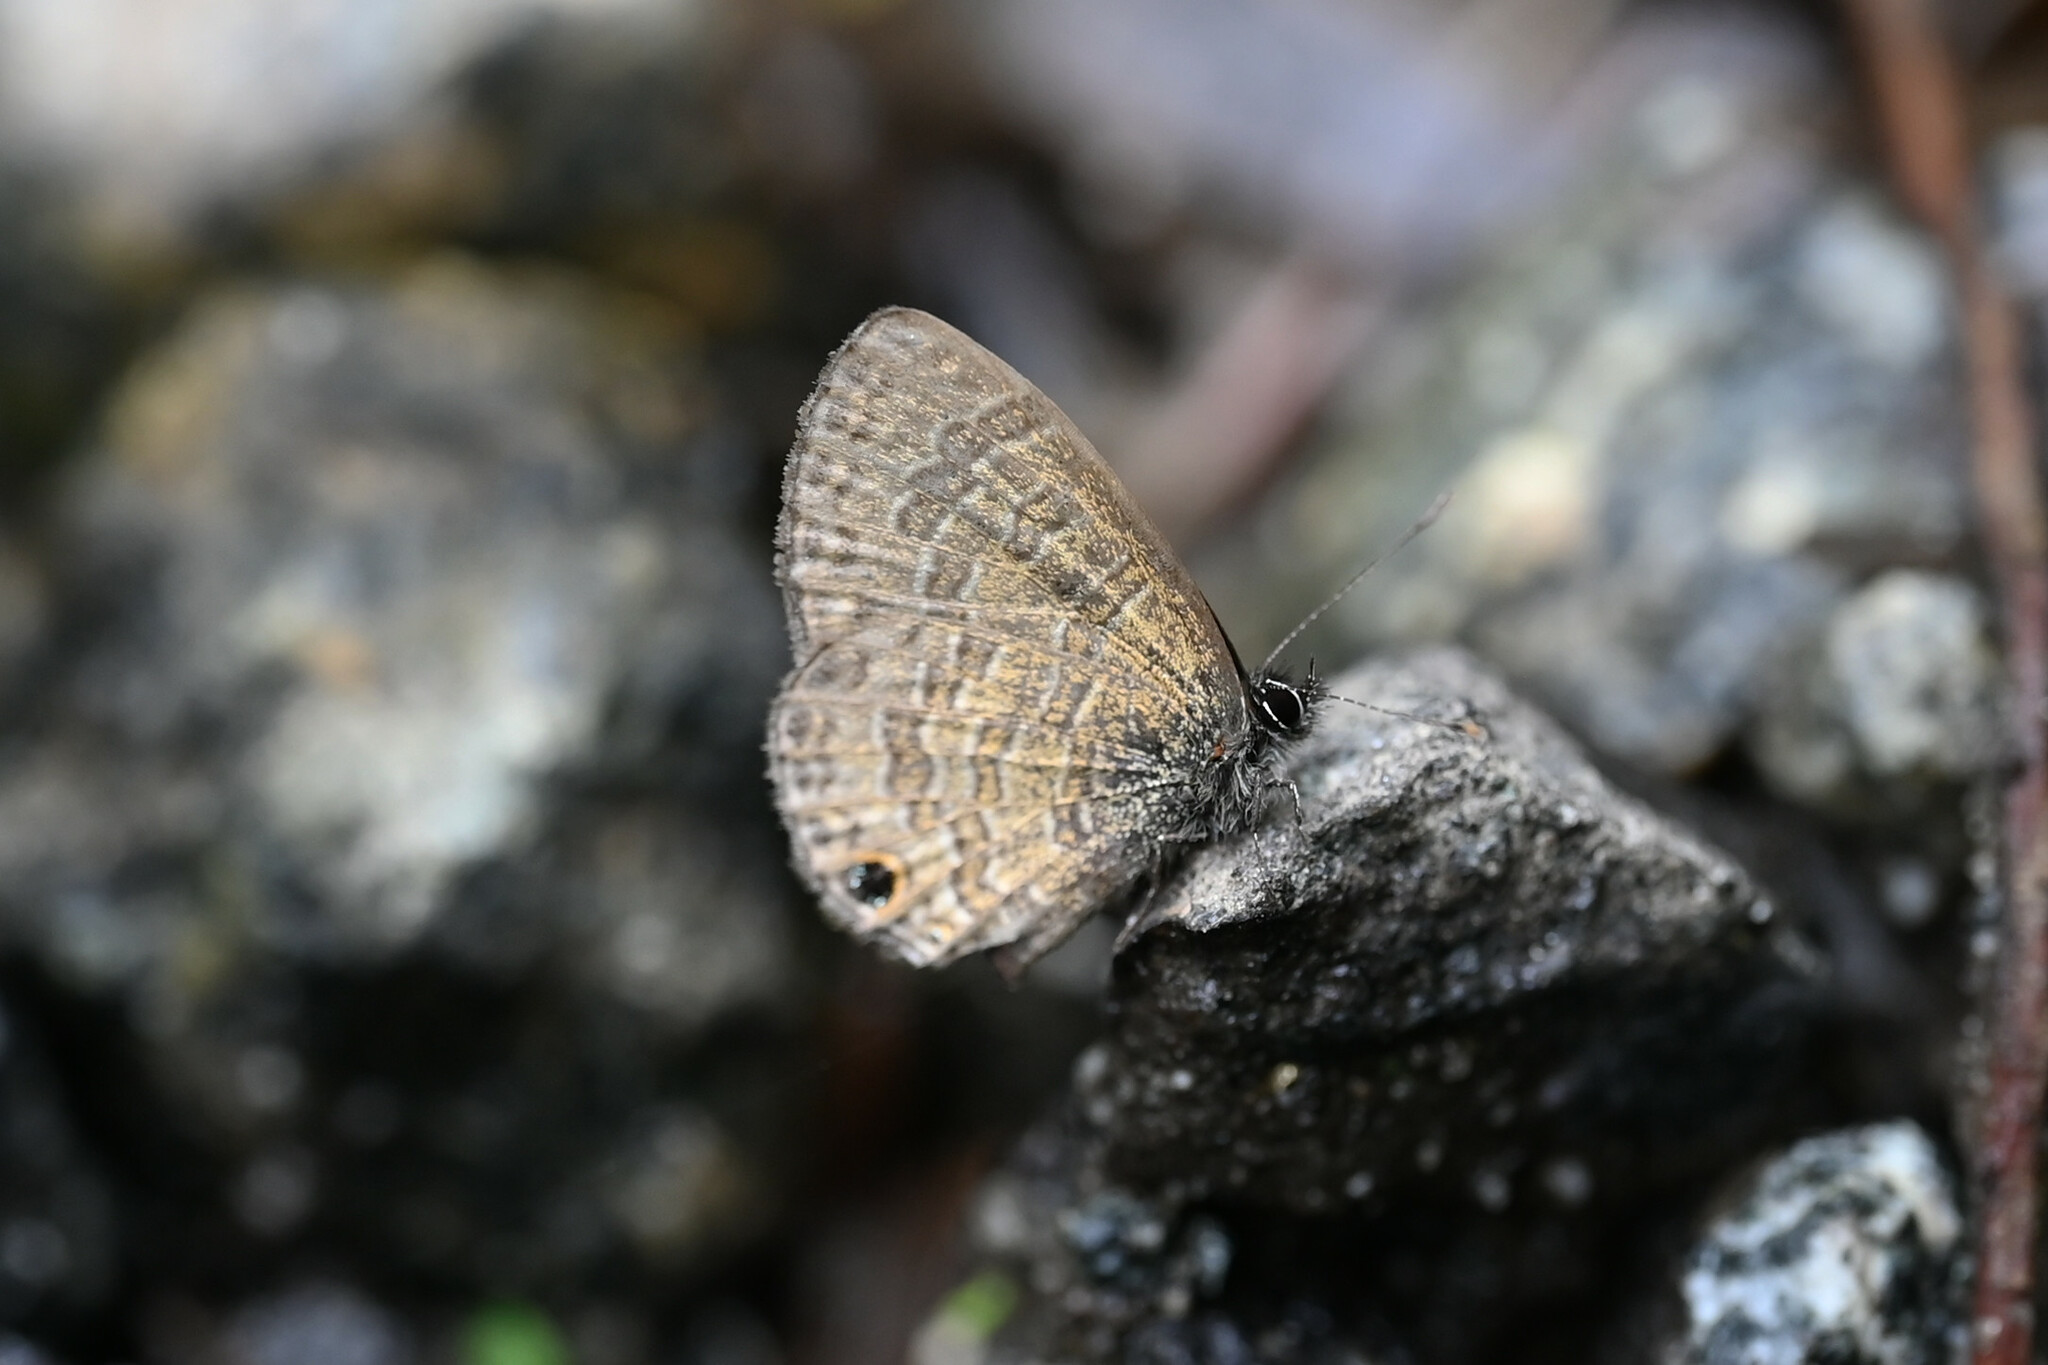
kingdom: Animalia
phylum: Arthropoda
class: Insecta
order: Lepidoptera
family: Lycaenidae
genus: Prosotas
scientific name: Prosotas nora
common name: Common line blue
